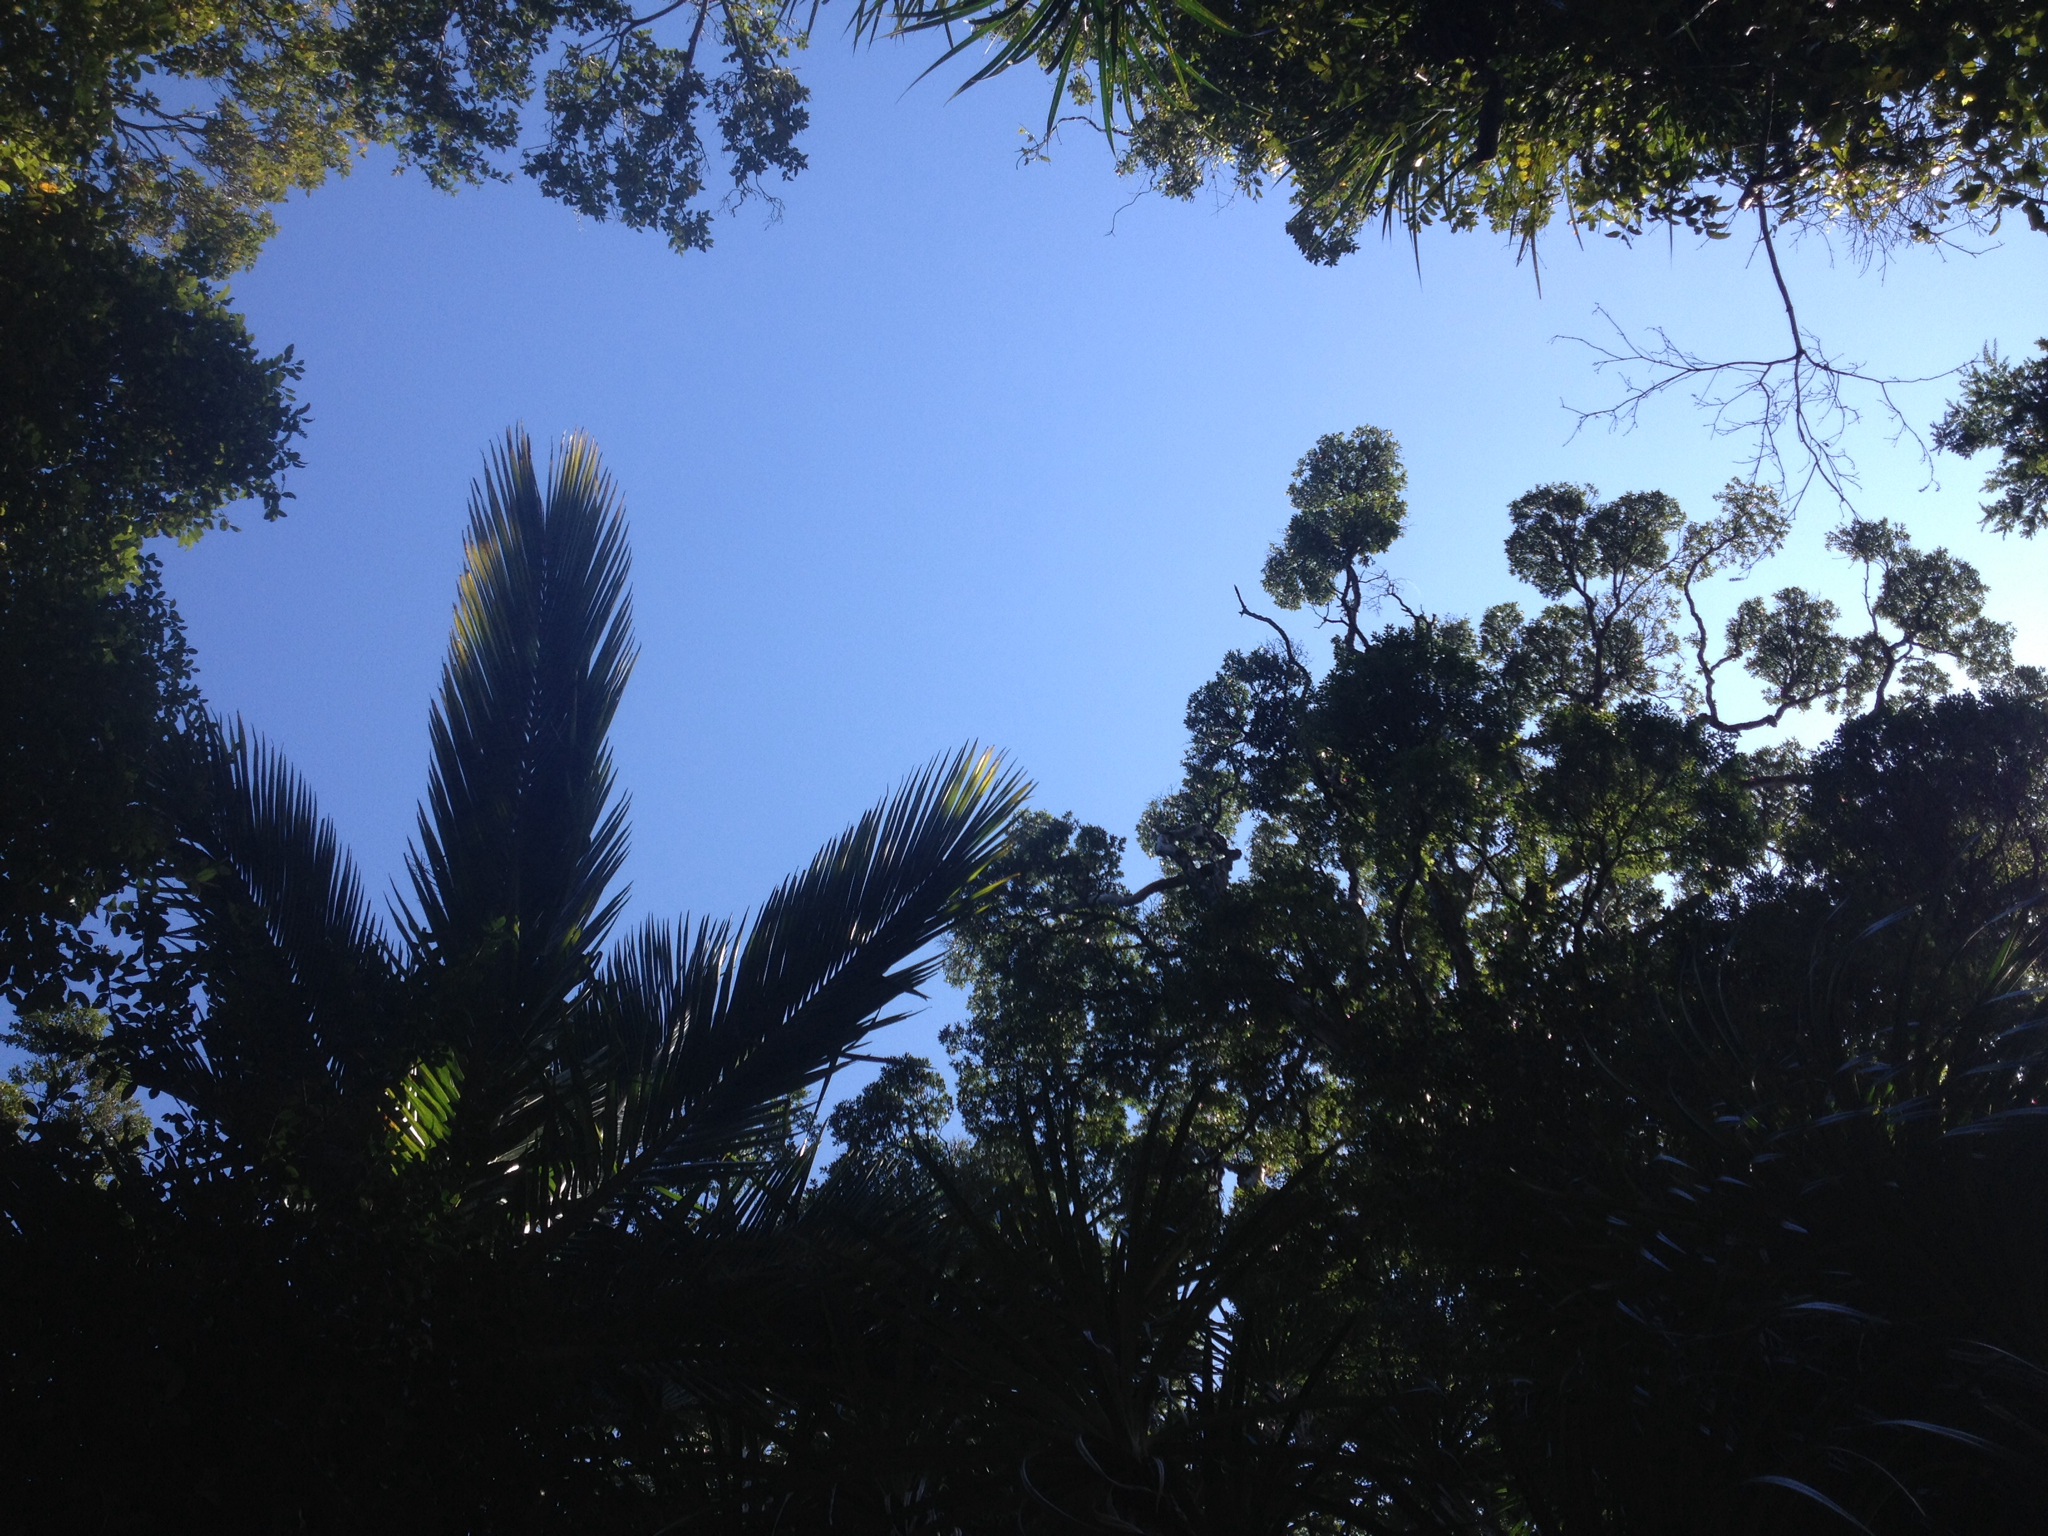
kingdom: Plantae
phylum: Tracheophyta
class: Magnoliopsida
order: Myrtales
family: Myrtaceae
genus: Metrosideros
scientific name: Metrosideros robusta
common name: Northern rata
